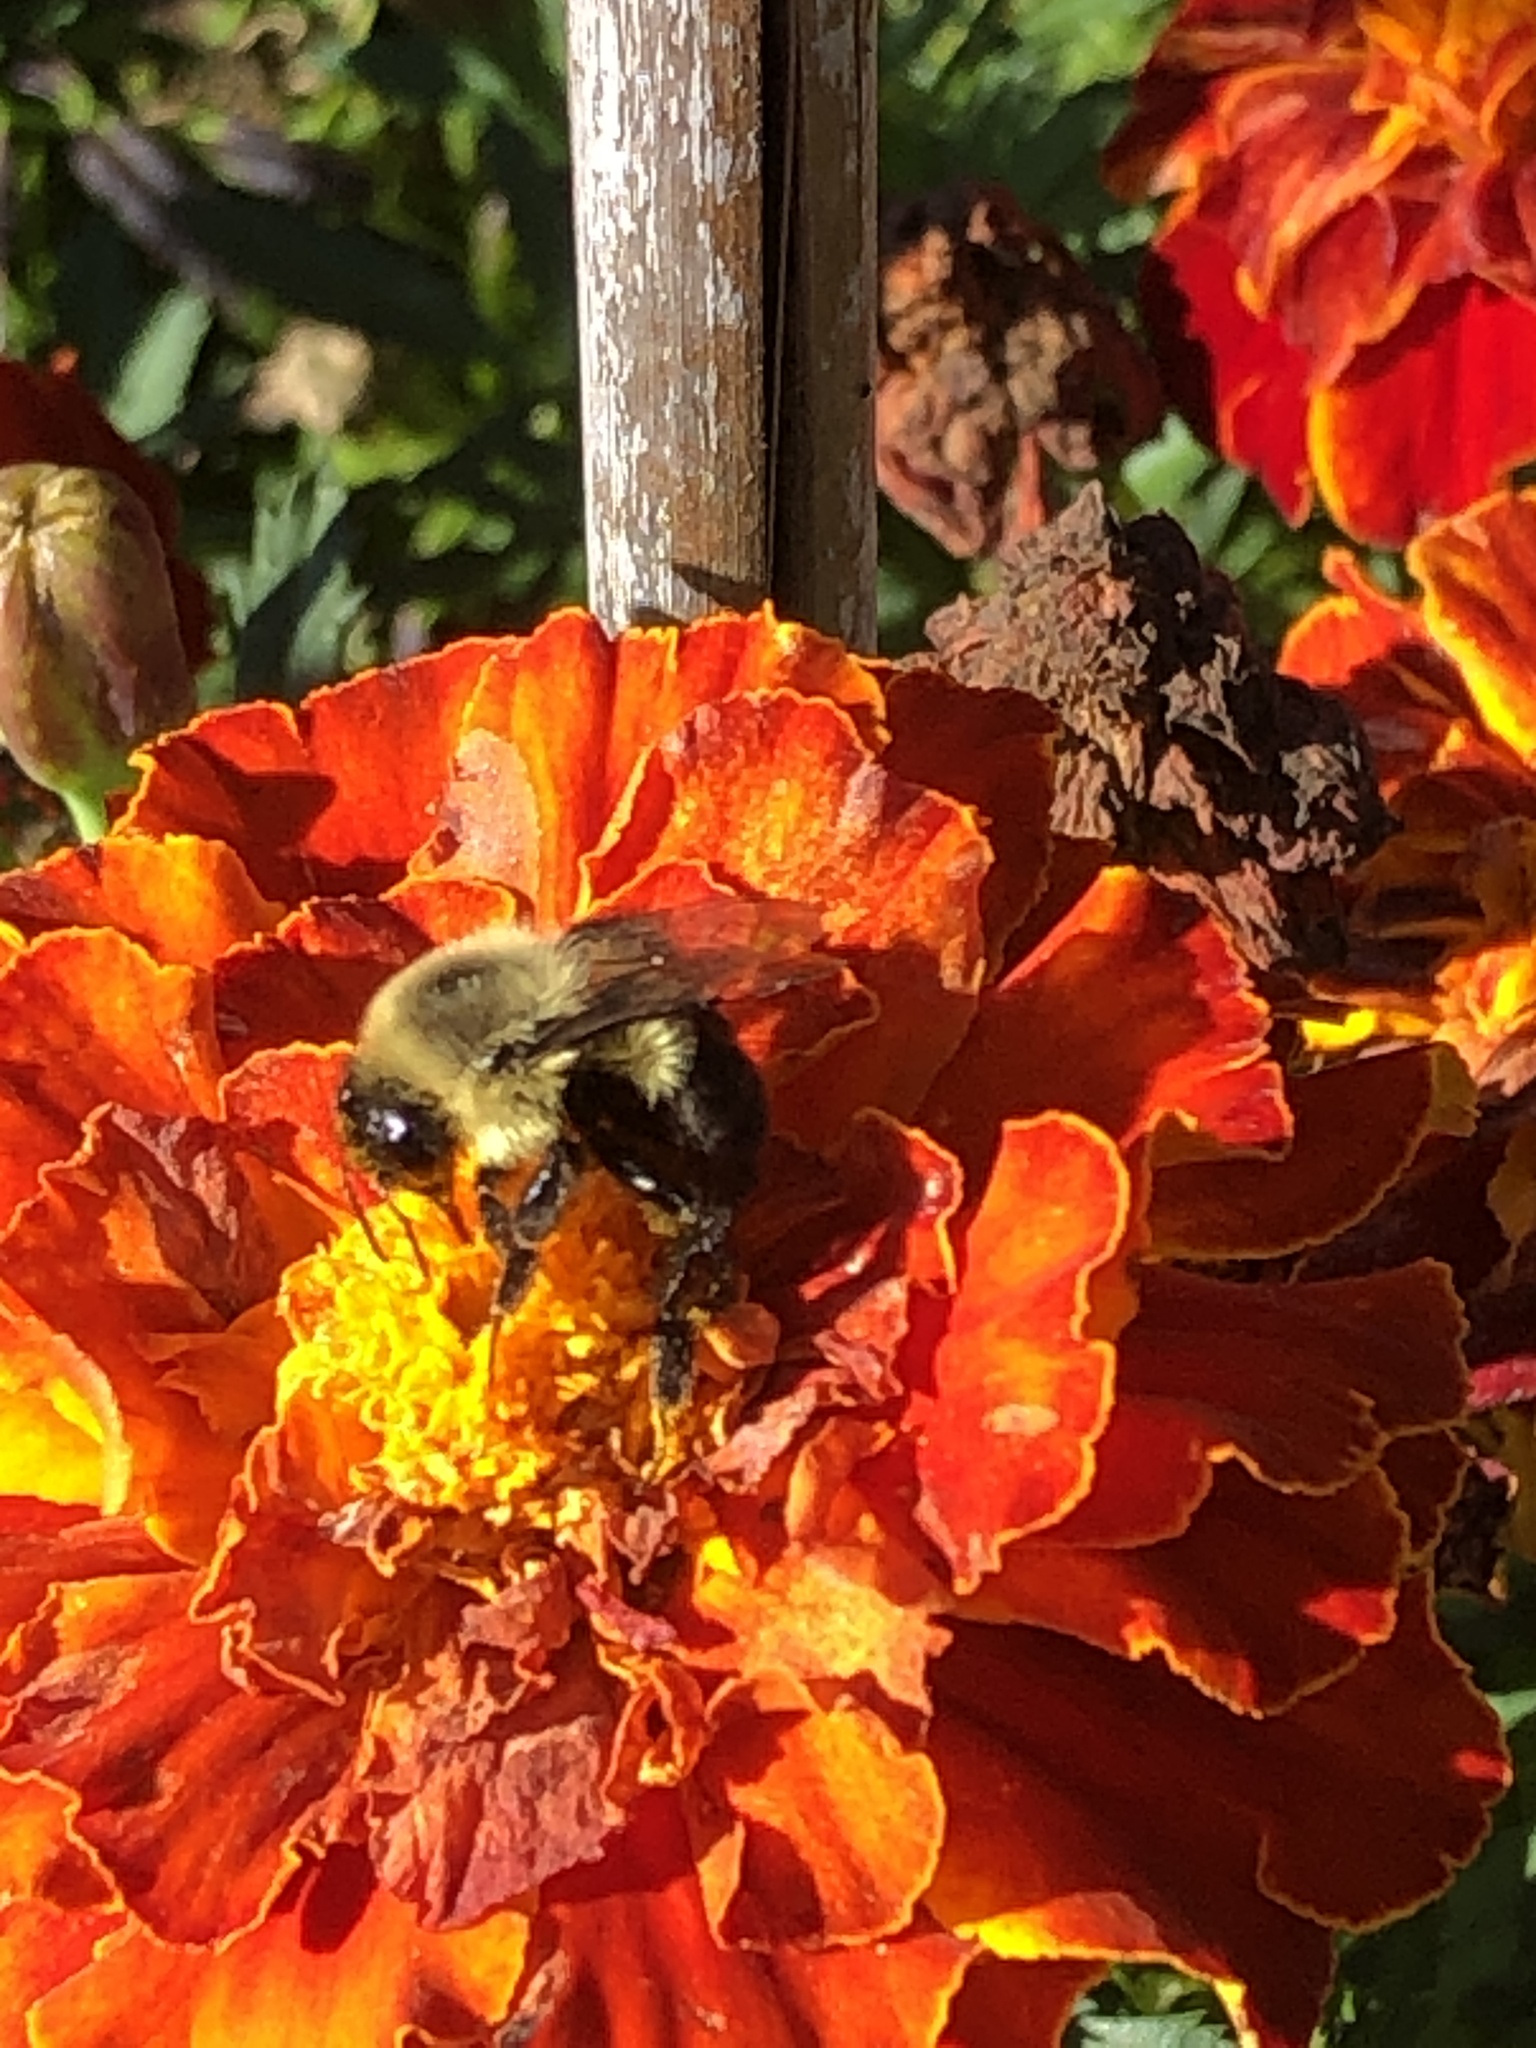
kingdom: Animalia
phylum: Arthropoda
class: Insecta
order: Hymenoptera
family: Apidae
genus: Bombus
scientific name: Bombus impatiens
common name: Common eastern bumble bee
